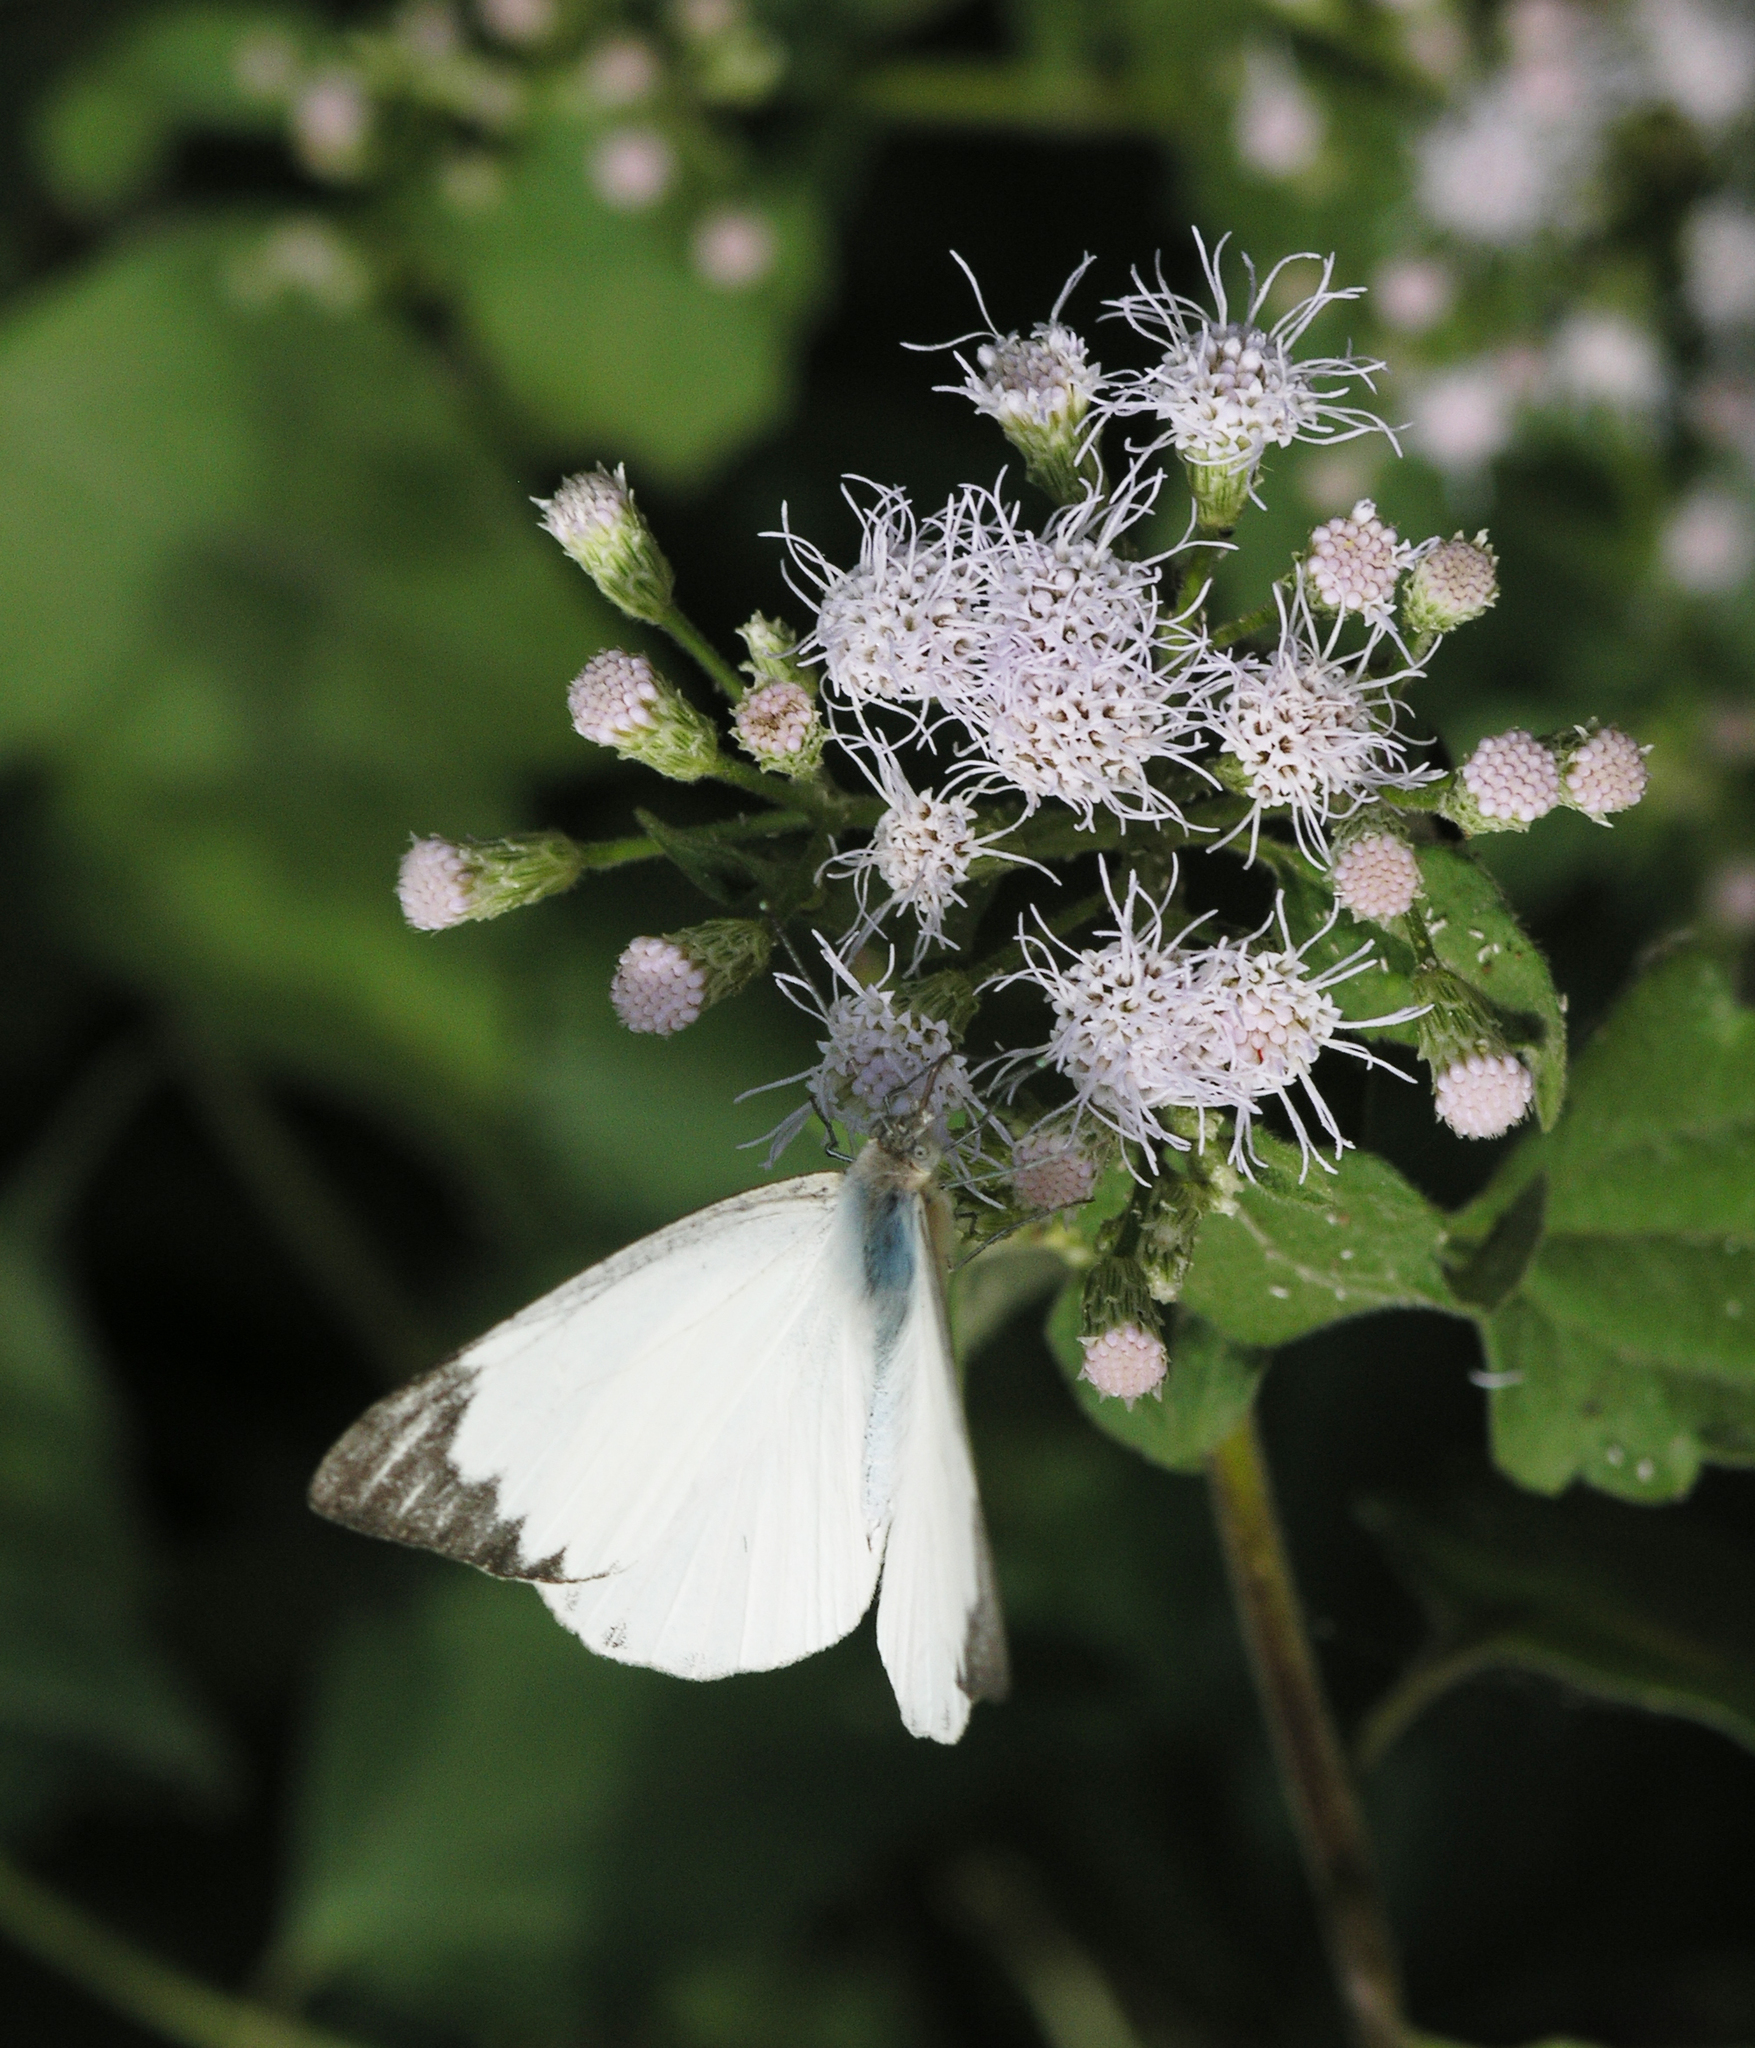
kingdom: Animalia
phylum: Arthropoda
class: Insecta
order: Lepidoptera
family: Pieridae
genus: Appias
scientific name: Appias libythea
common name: Striped albatross
